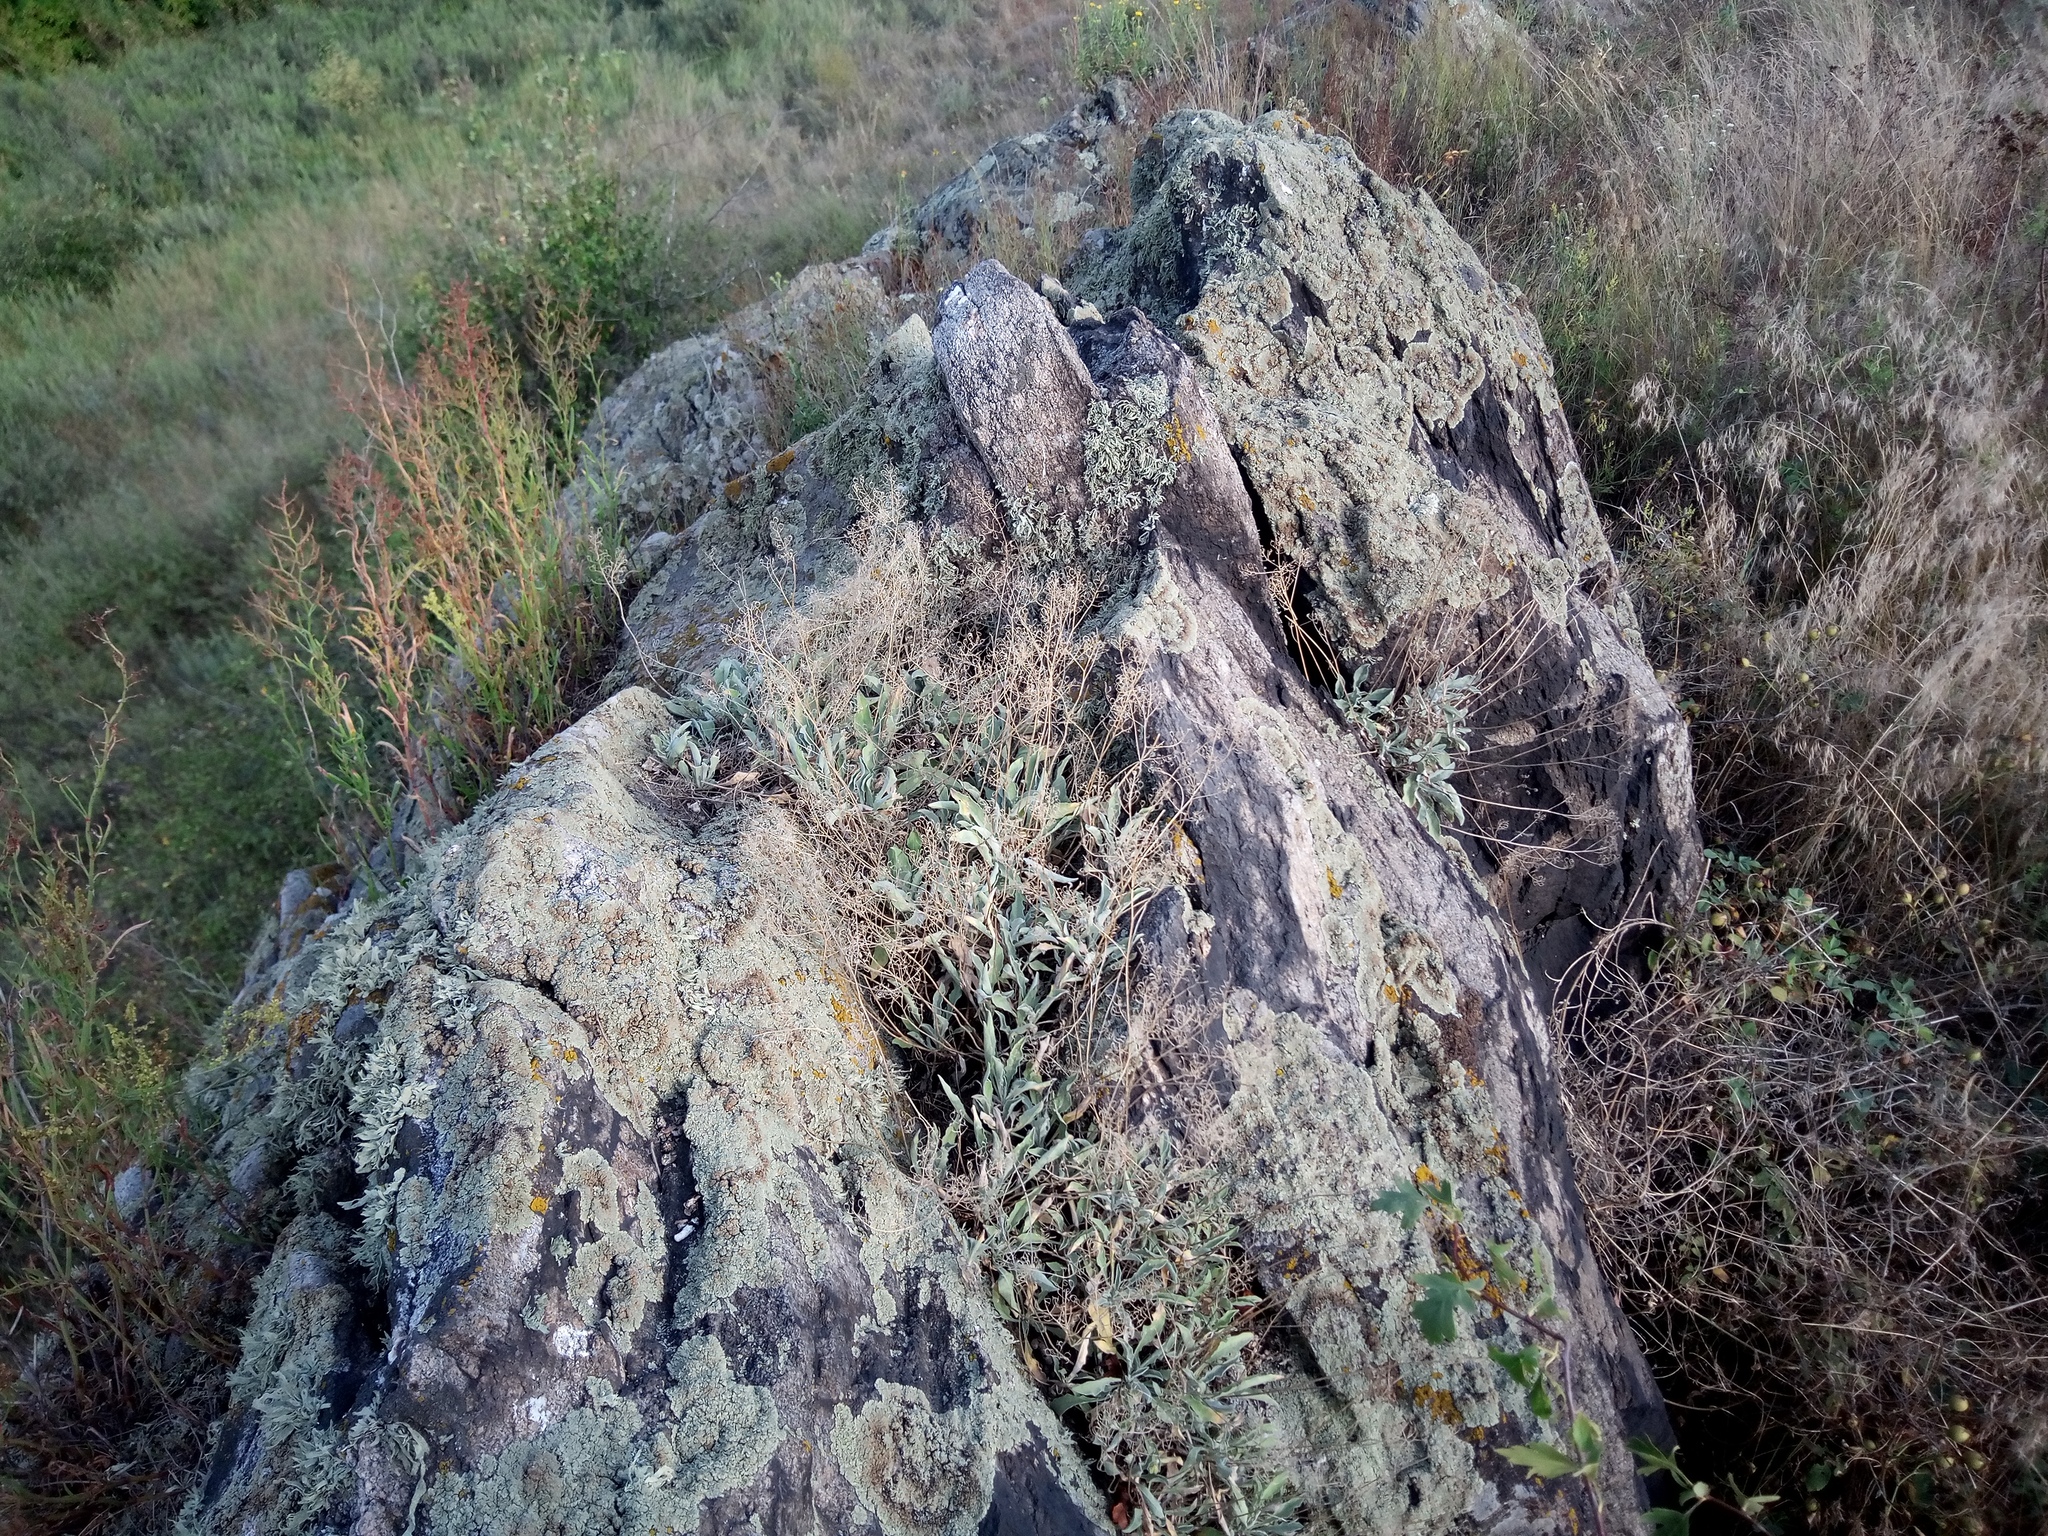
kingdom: Plantae
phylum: Tracheophyta
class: Magnoliopsida
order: Brassicales
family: Brassicaceae
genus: Aurinia
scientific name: Aurinia saxatilis
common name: Golden-tuft alyssum
